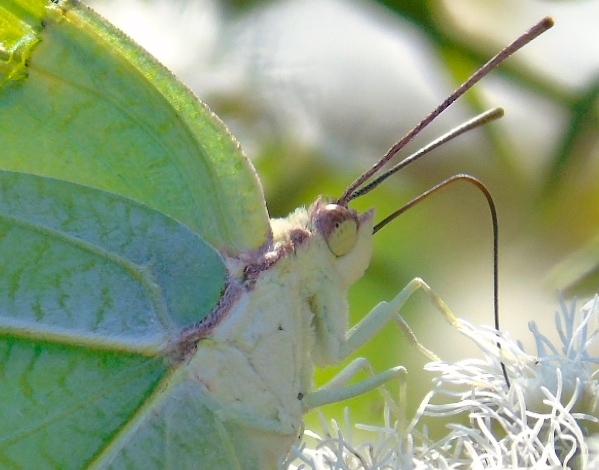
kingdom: Animalia
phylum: Arthropoda
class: Insecta
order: Lepidoptera
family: Pieridae
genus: Anteos
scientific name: Anteos
